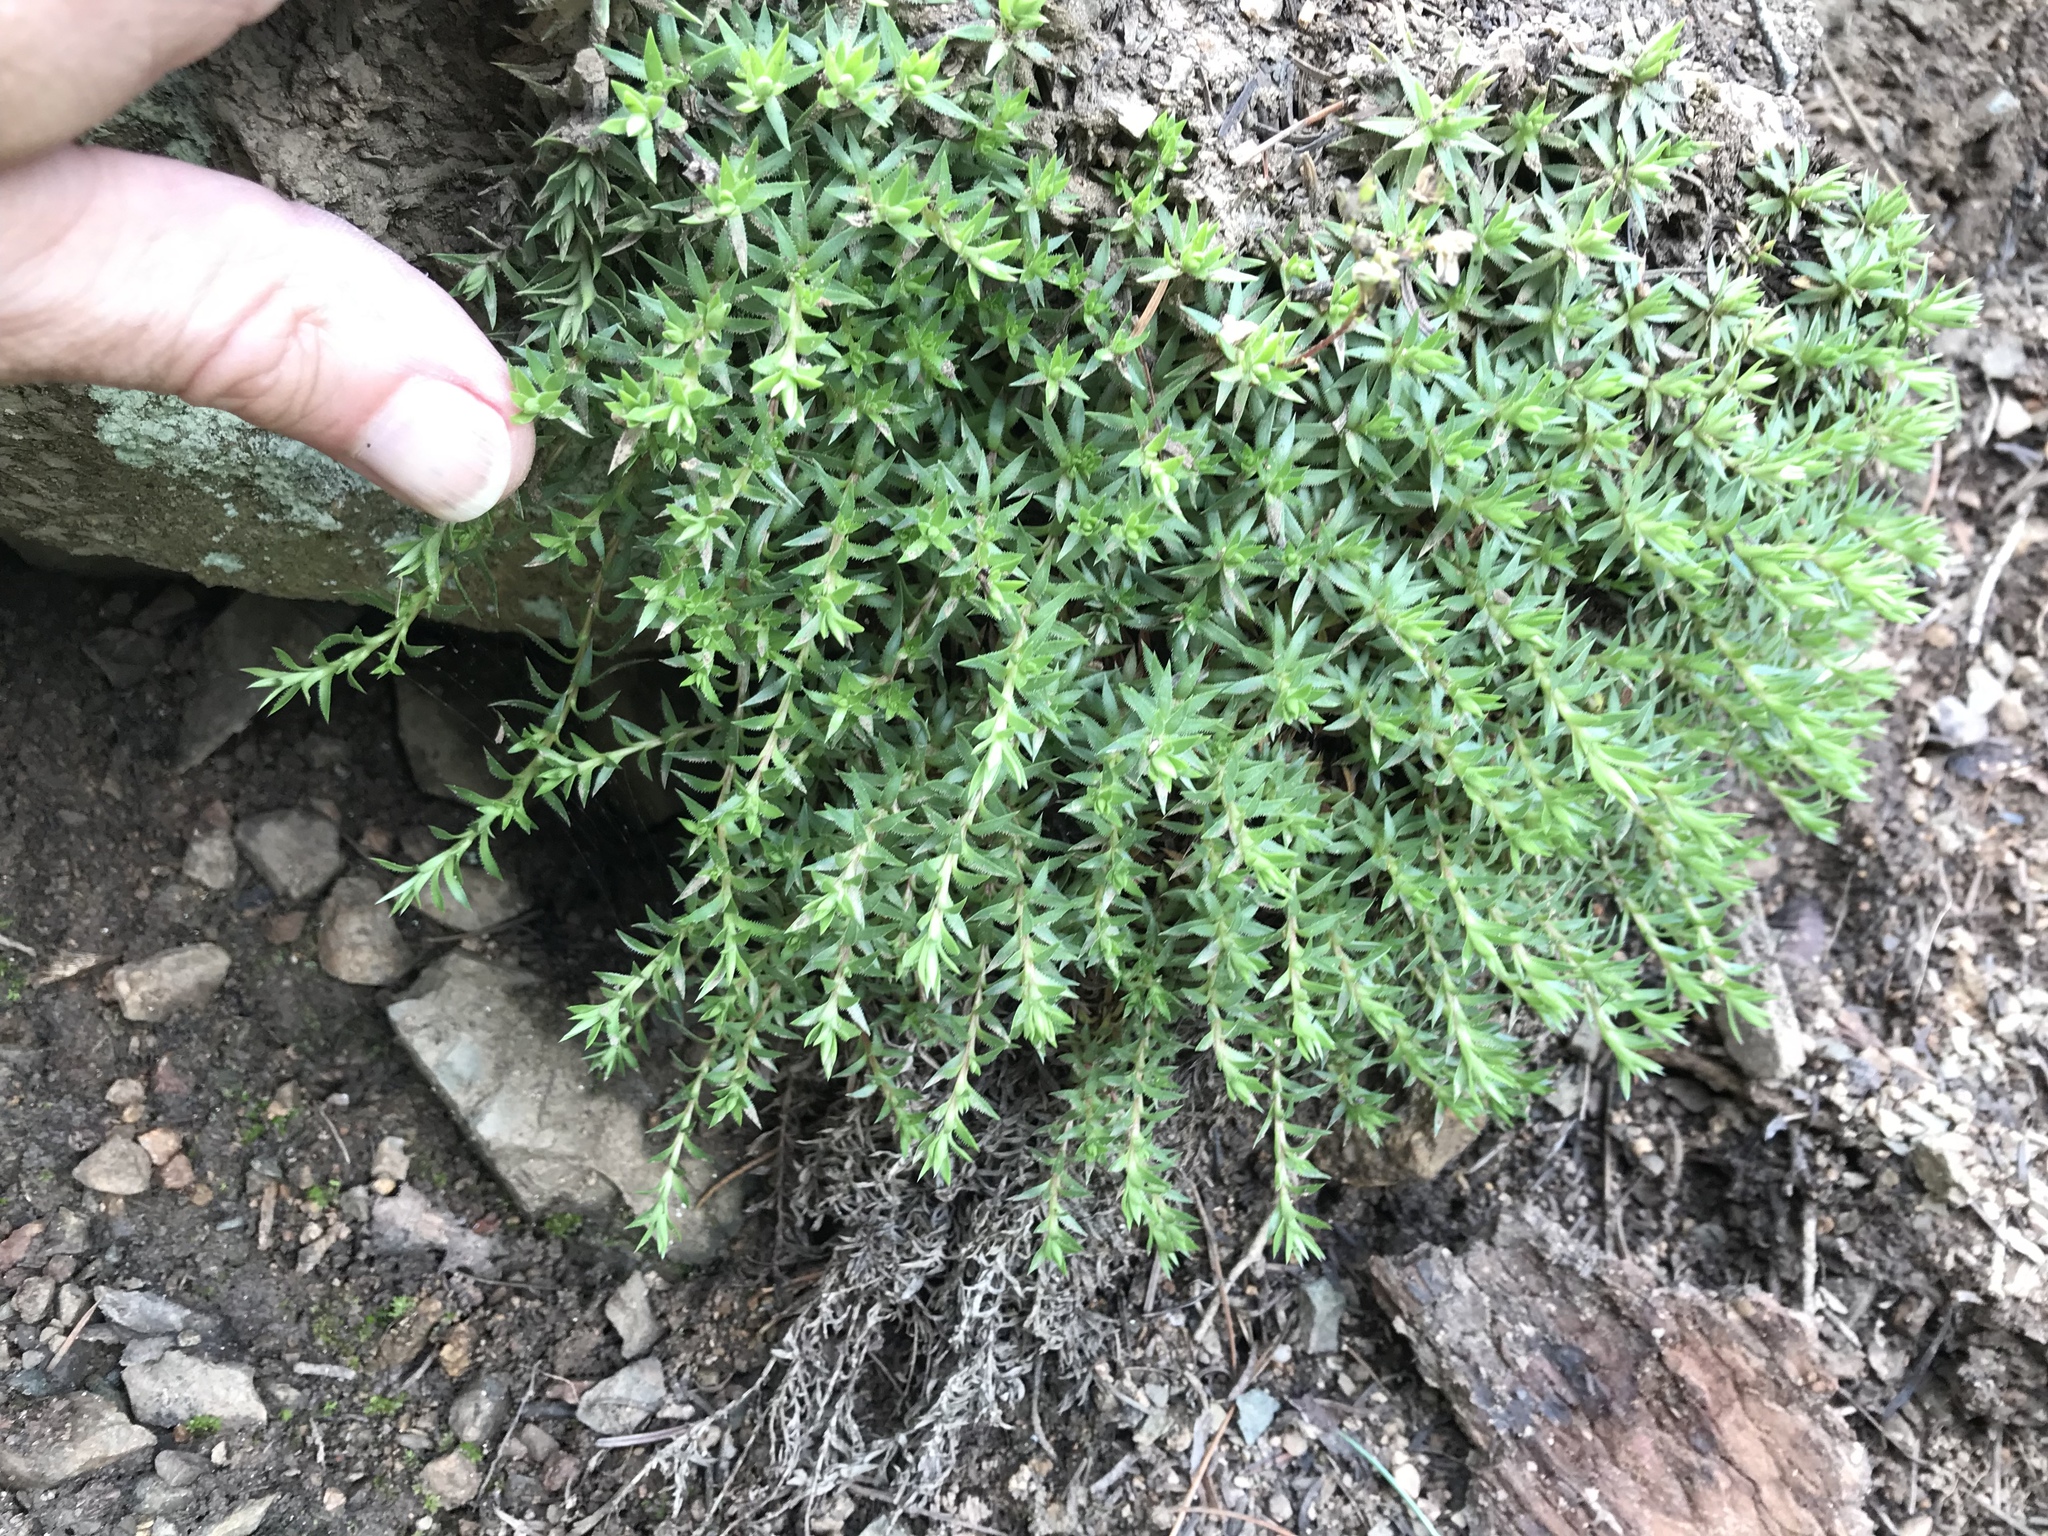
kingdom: Plantae
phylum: Tracheophyta
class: Magnoliopsida
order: Saxifragales
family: Saxifragaceae
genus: Saxifraga
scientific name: Saxifraga bronchialis
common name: Matted saxifrage
